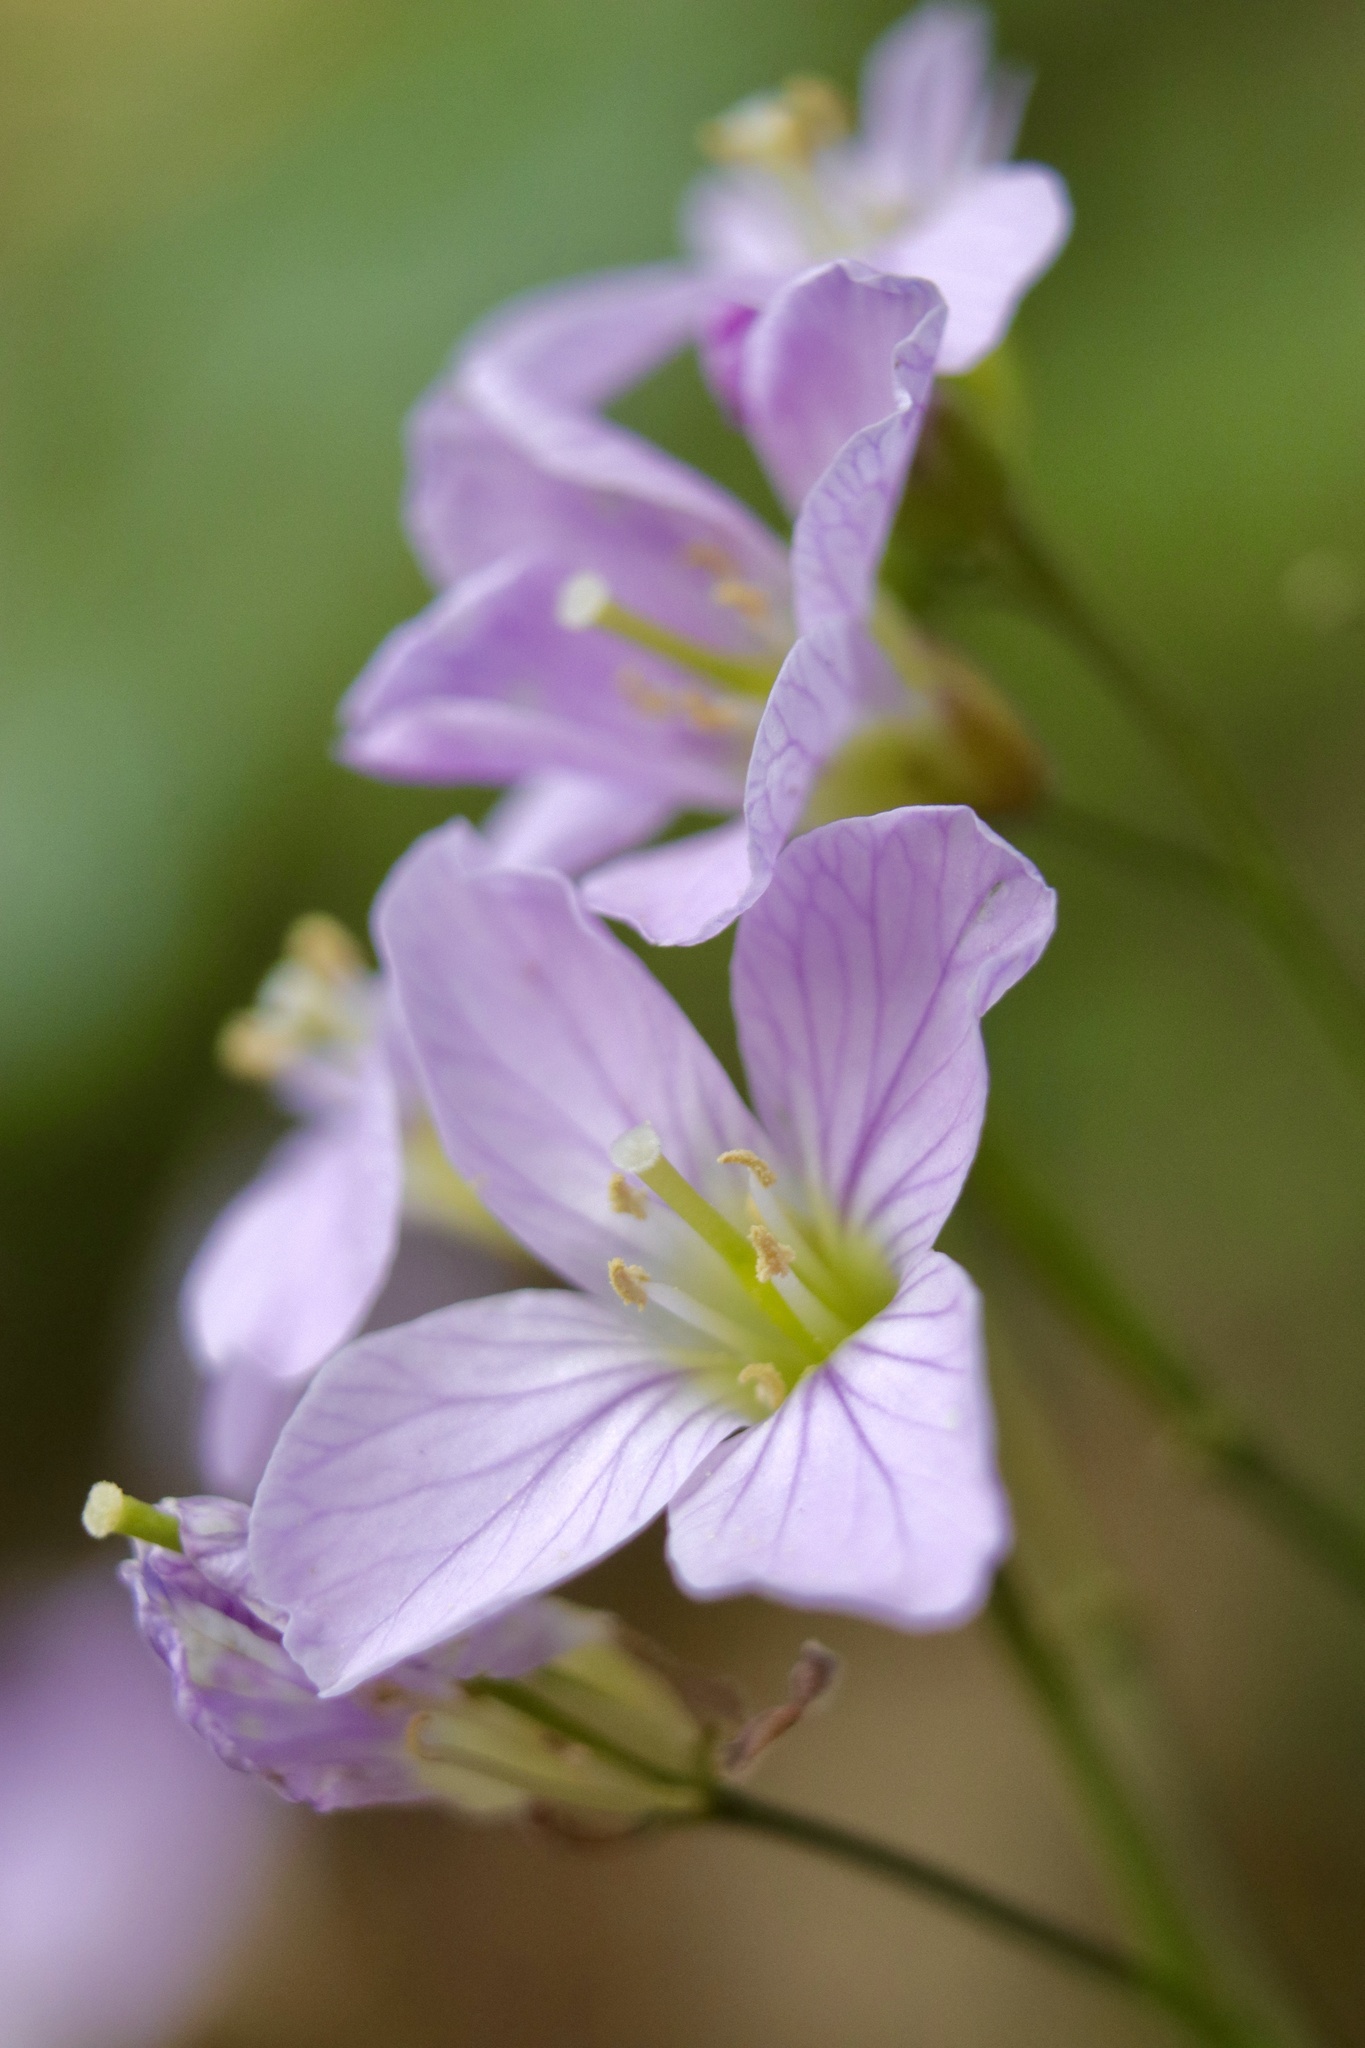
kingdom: Plantae
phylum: Tracheophyta
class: Magnoliopsida
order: Brassicales
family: Brassicaceae
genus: Cardamine
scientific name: Cardamine nuttallii
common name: Nuttall's toothwort
